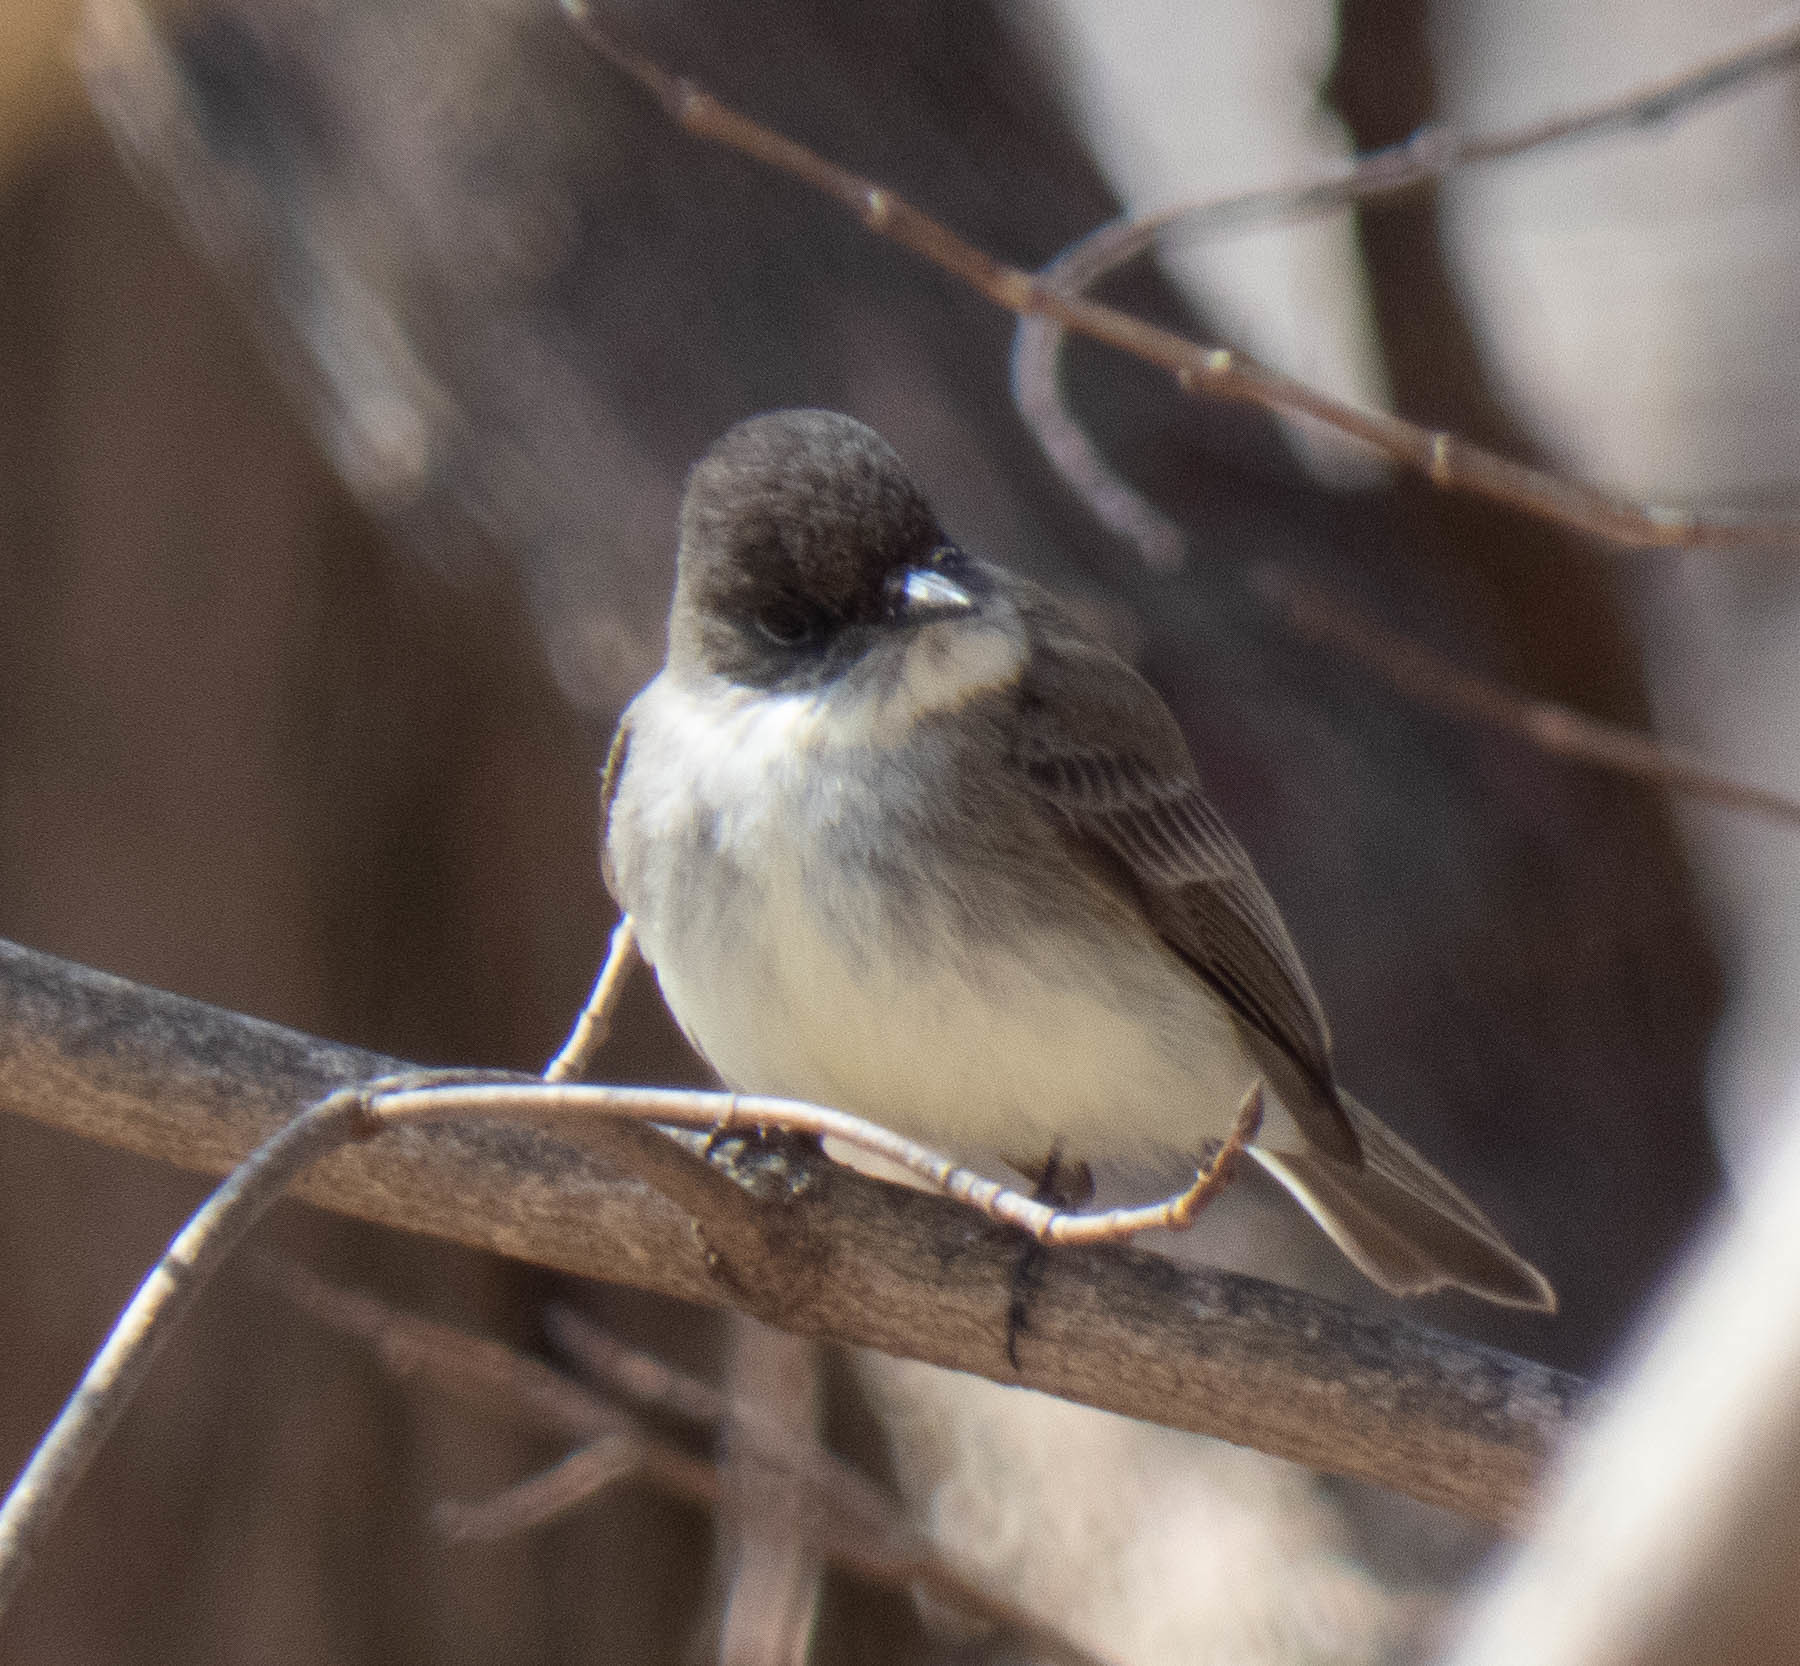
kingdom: Animalia
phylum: Chordata
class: Aves
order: Passeriformes
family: Tyrannidae
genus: Sayornis
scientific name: Sayornis phoebe
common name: Eastern phoebe
